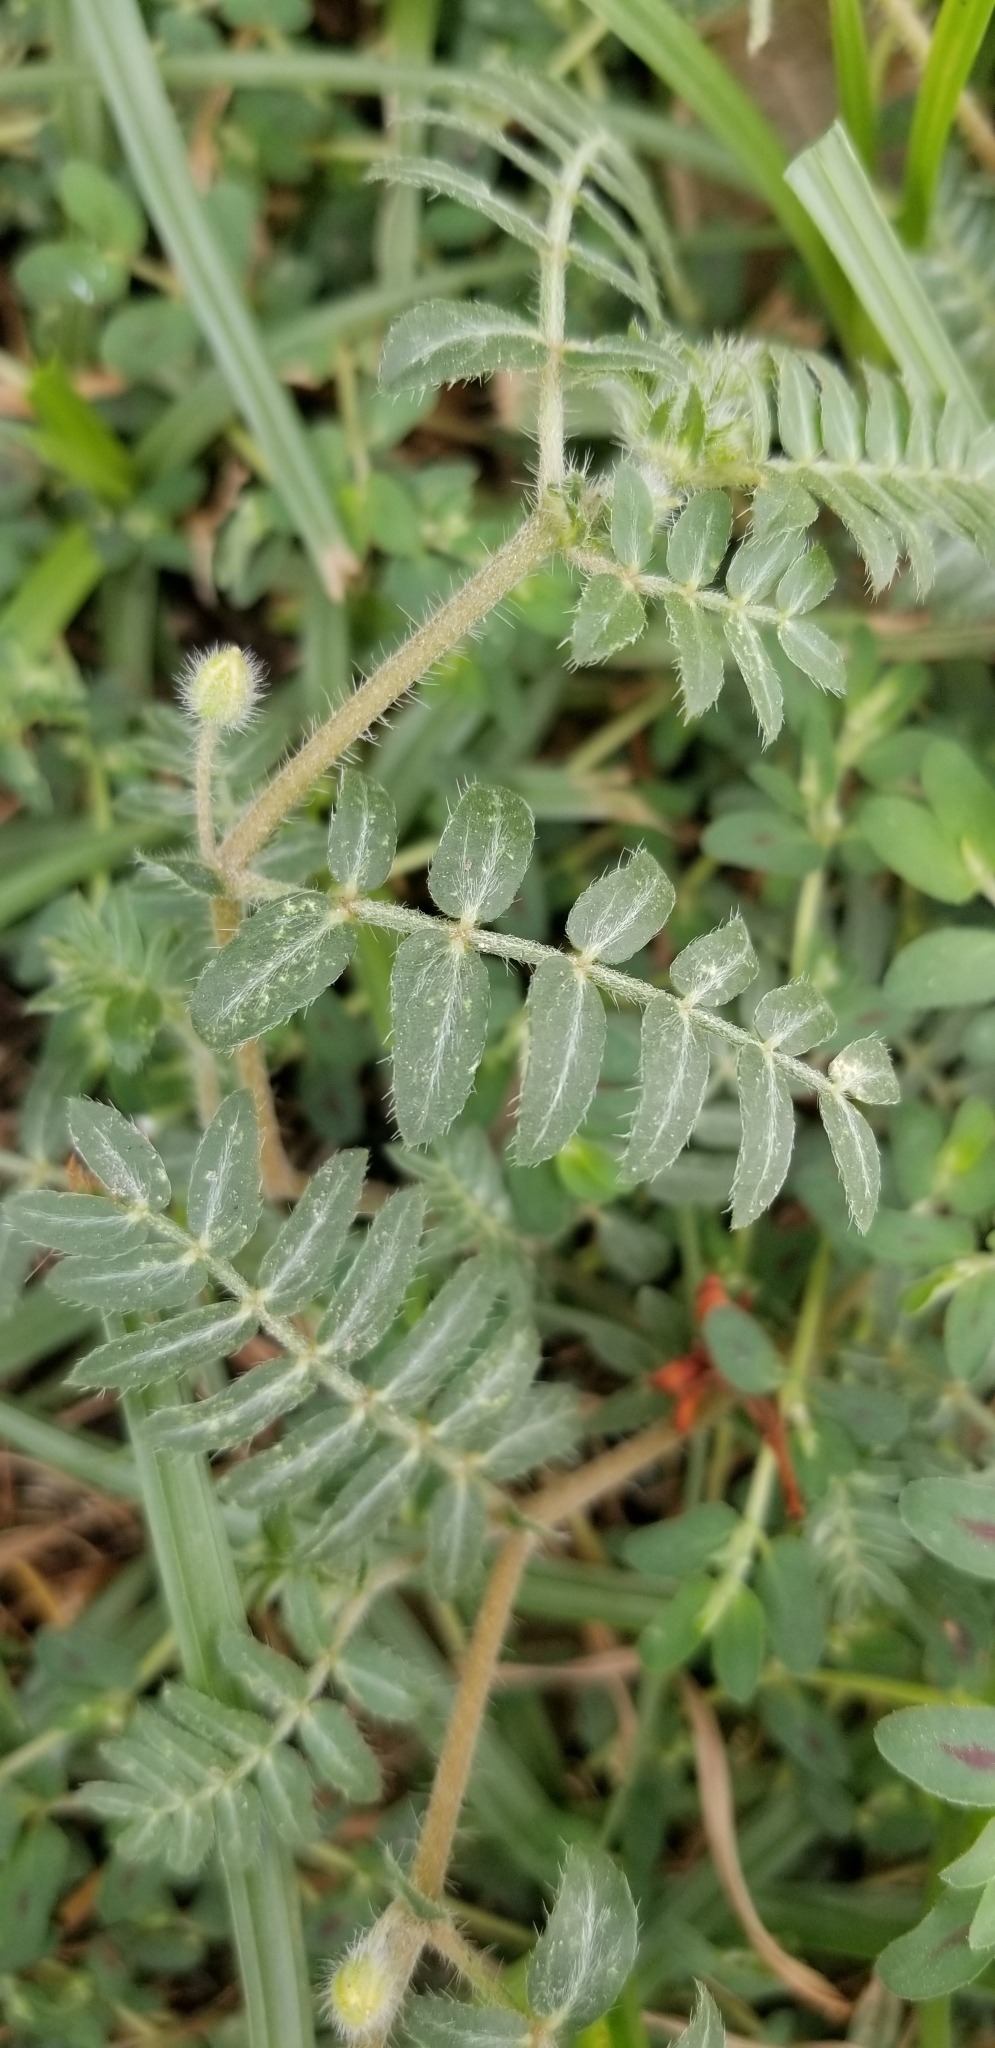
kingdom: Plantae
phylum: Tracheophyta
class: Magnoliopsida
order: Zygophyllales
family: Zygophyllaceae
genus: Tribulus
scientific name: Tribulus terrestris
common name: Puncturevine
